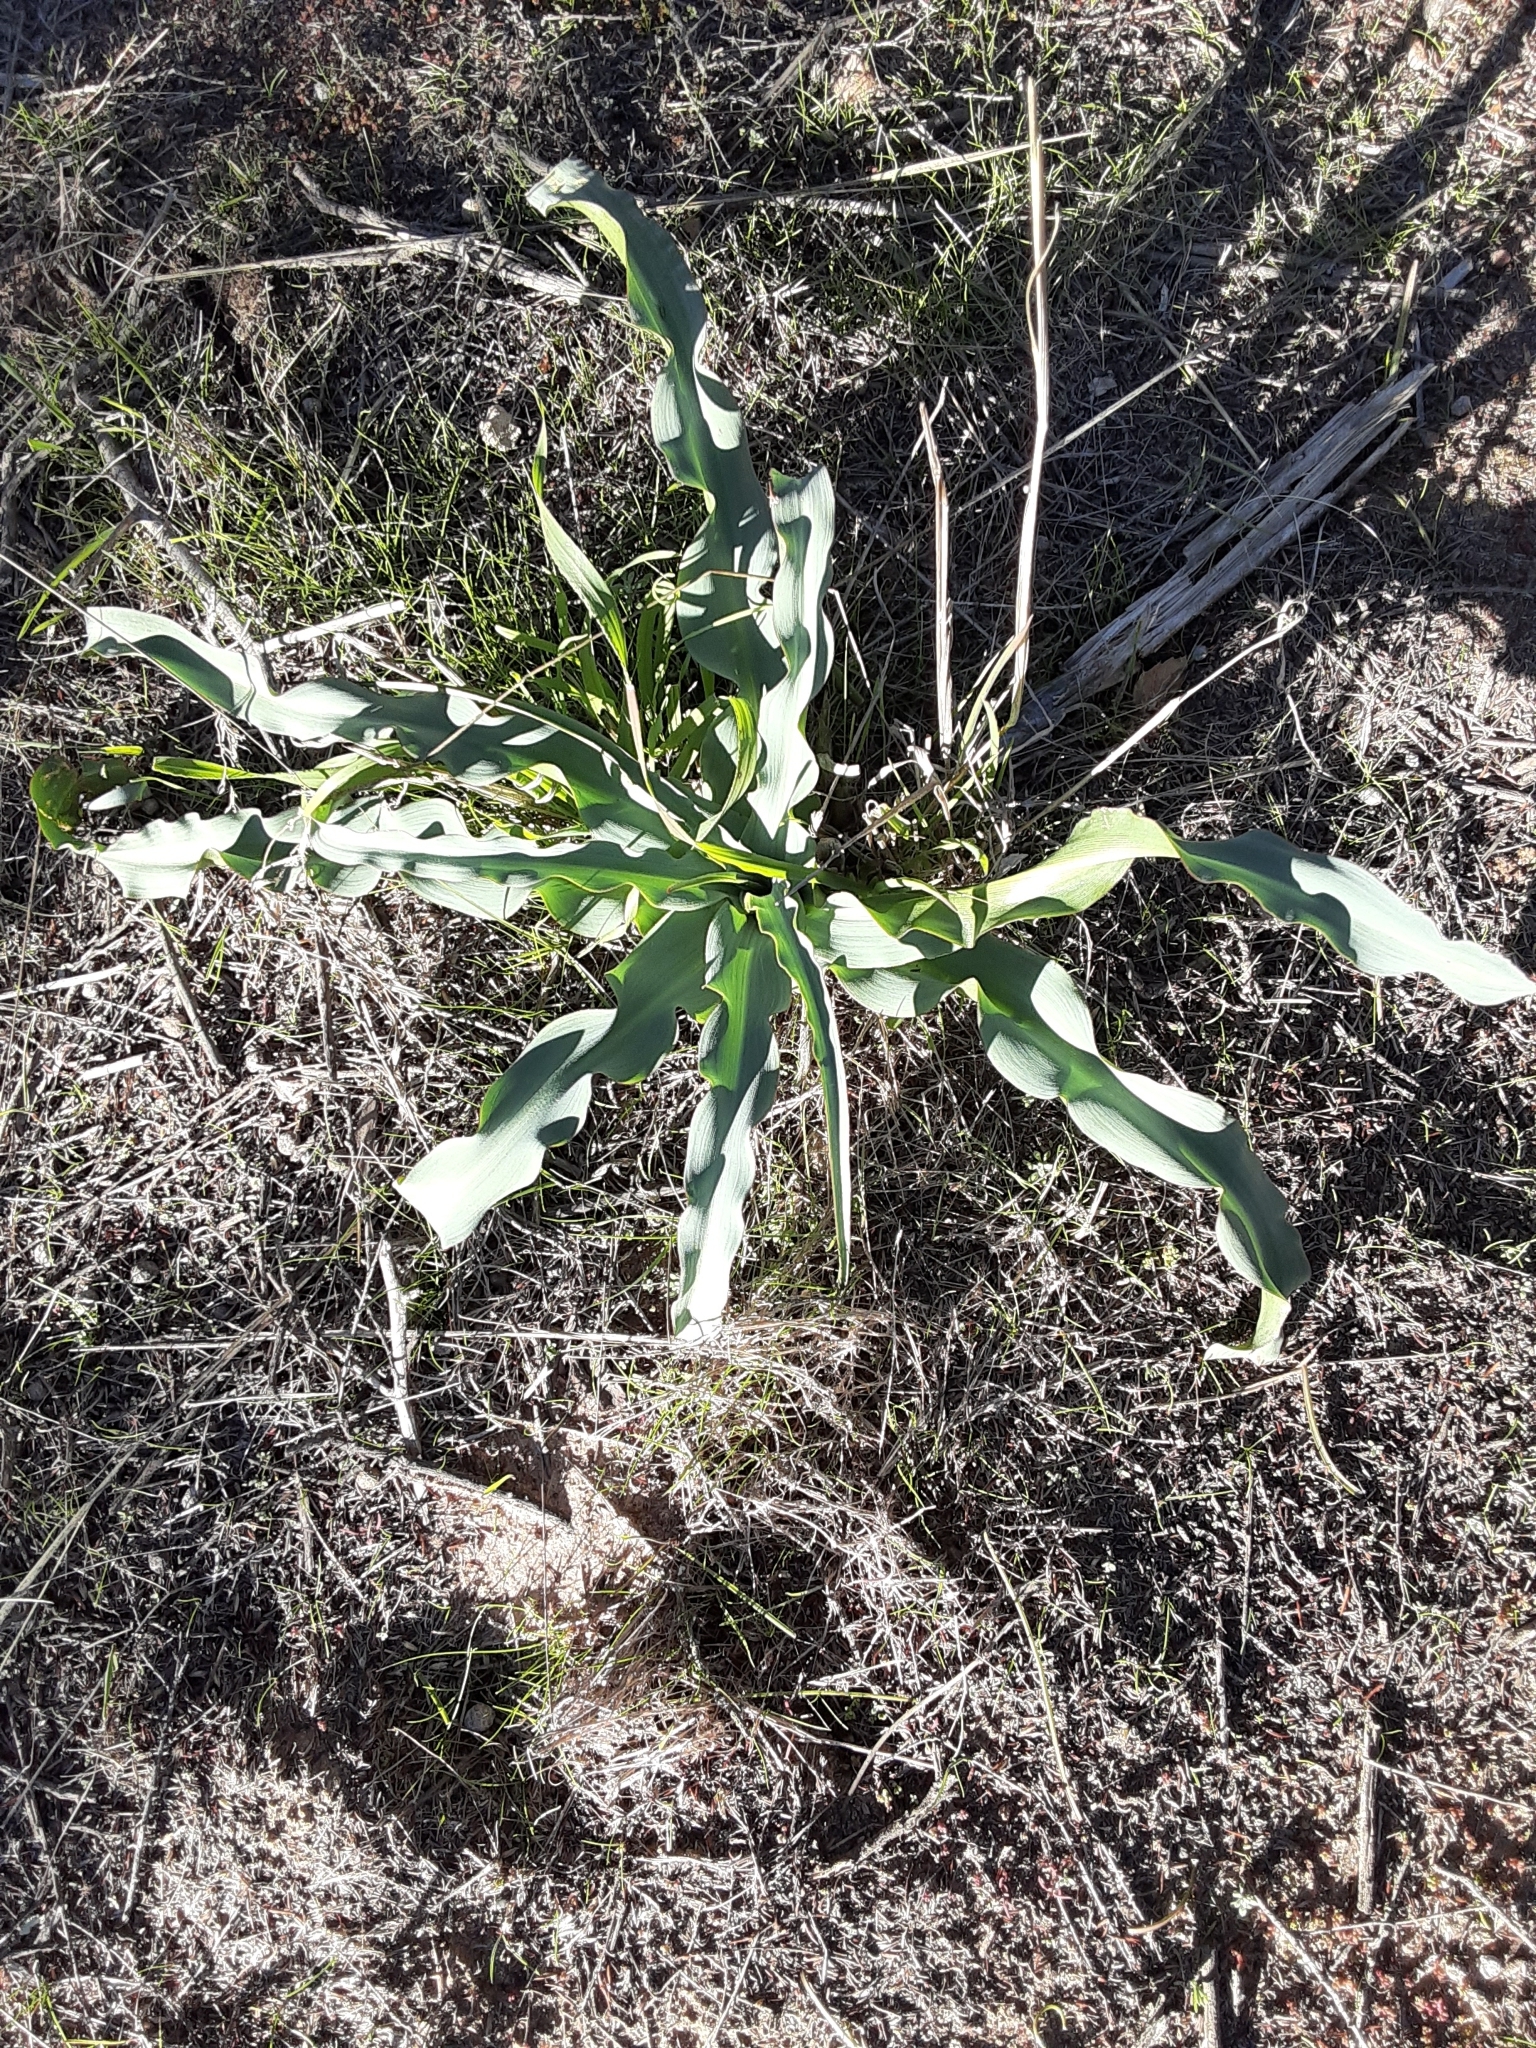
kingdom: Plantae
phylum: Tracheophyta
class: Liliopsida
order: Asparagales
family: Asparagaceae
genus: Chlorogalum
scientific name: Chlorogalum pomeridianum
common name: Amole
